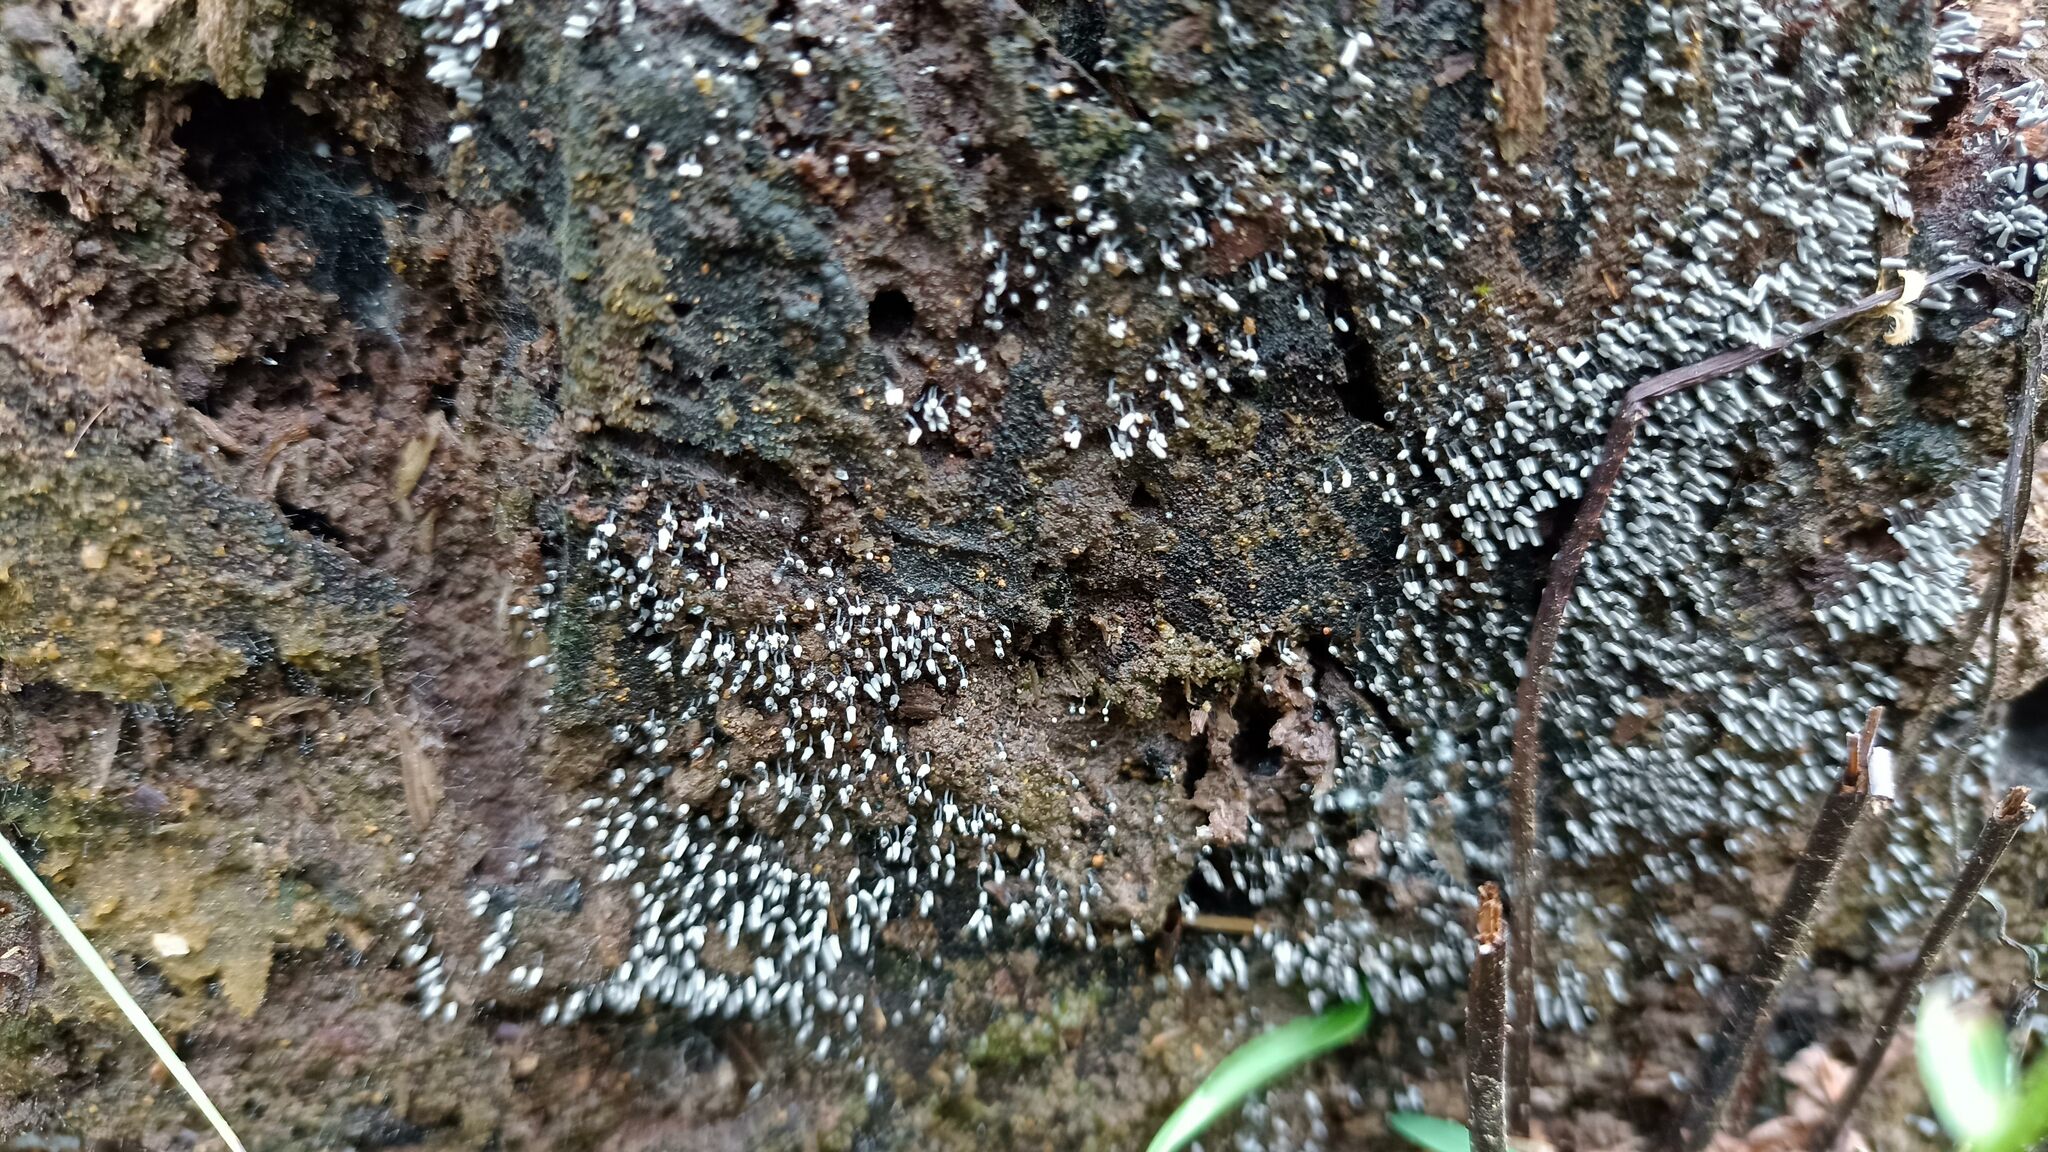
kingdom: Protozoa
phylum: Mycetozoa
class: Myxomycetes
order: Trichiales
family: Arcyriaceae
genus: Arcyria
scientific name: Arcyria cinerea
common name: White carnival candy slime mold
